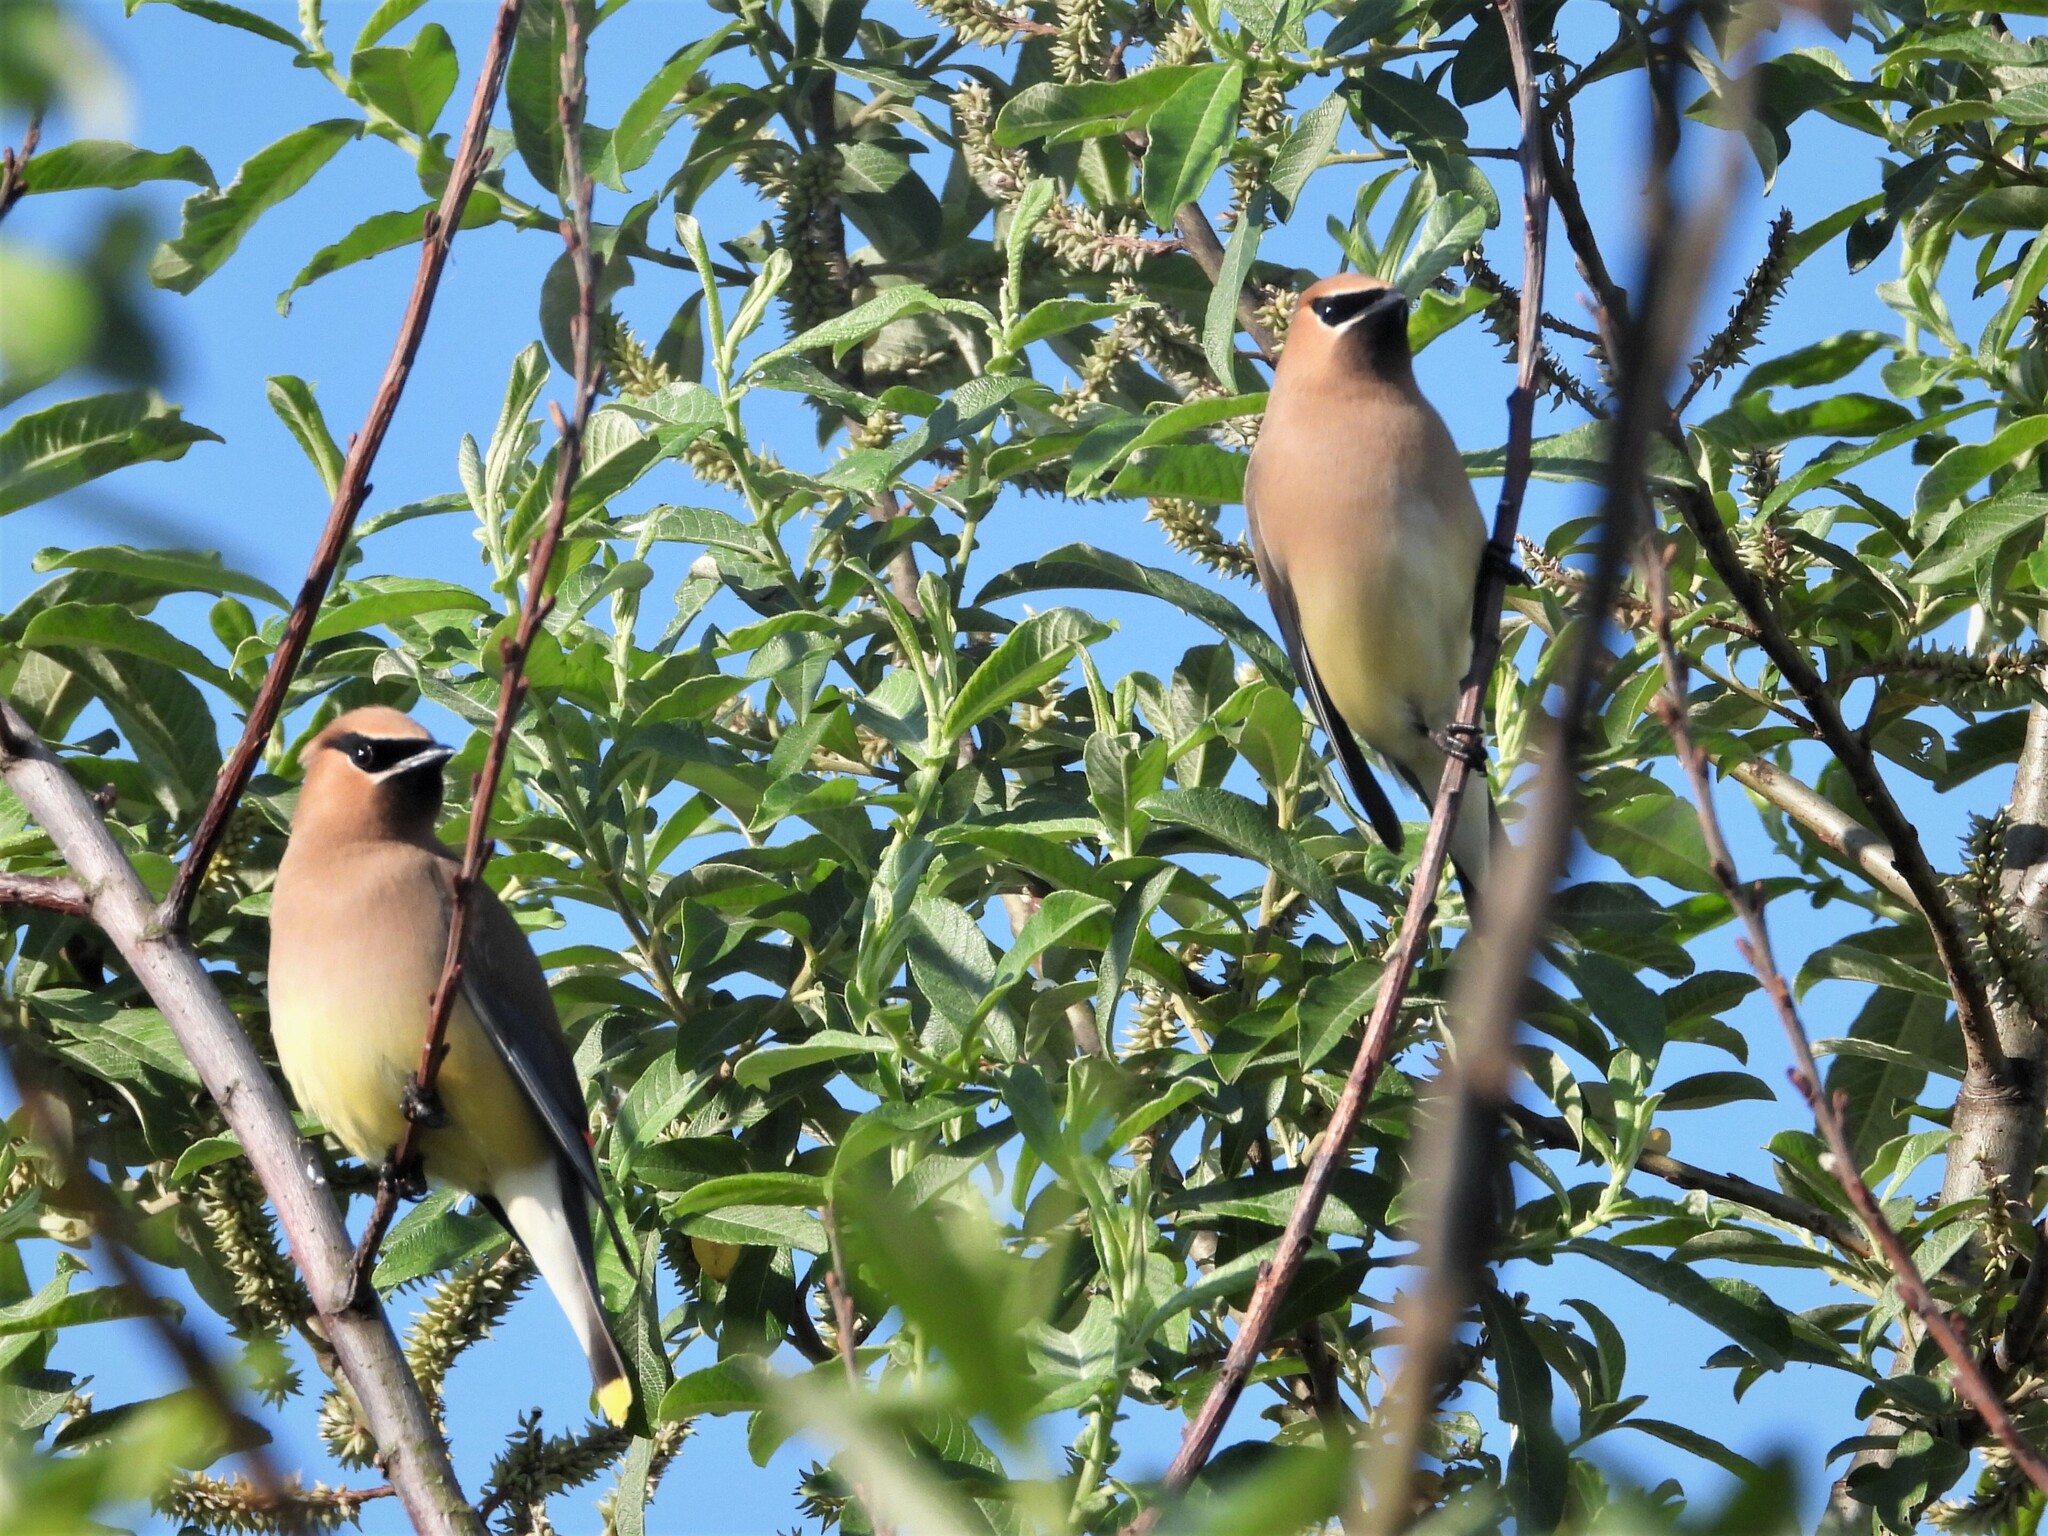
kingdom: Animalia
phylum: Chordata
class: Aves
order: Passeriformes
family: Bombycillidae
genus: Bombycilla
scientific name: Bombycilla cedrorum
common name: Cedar waxwing
